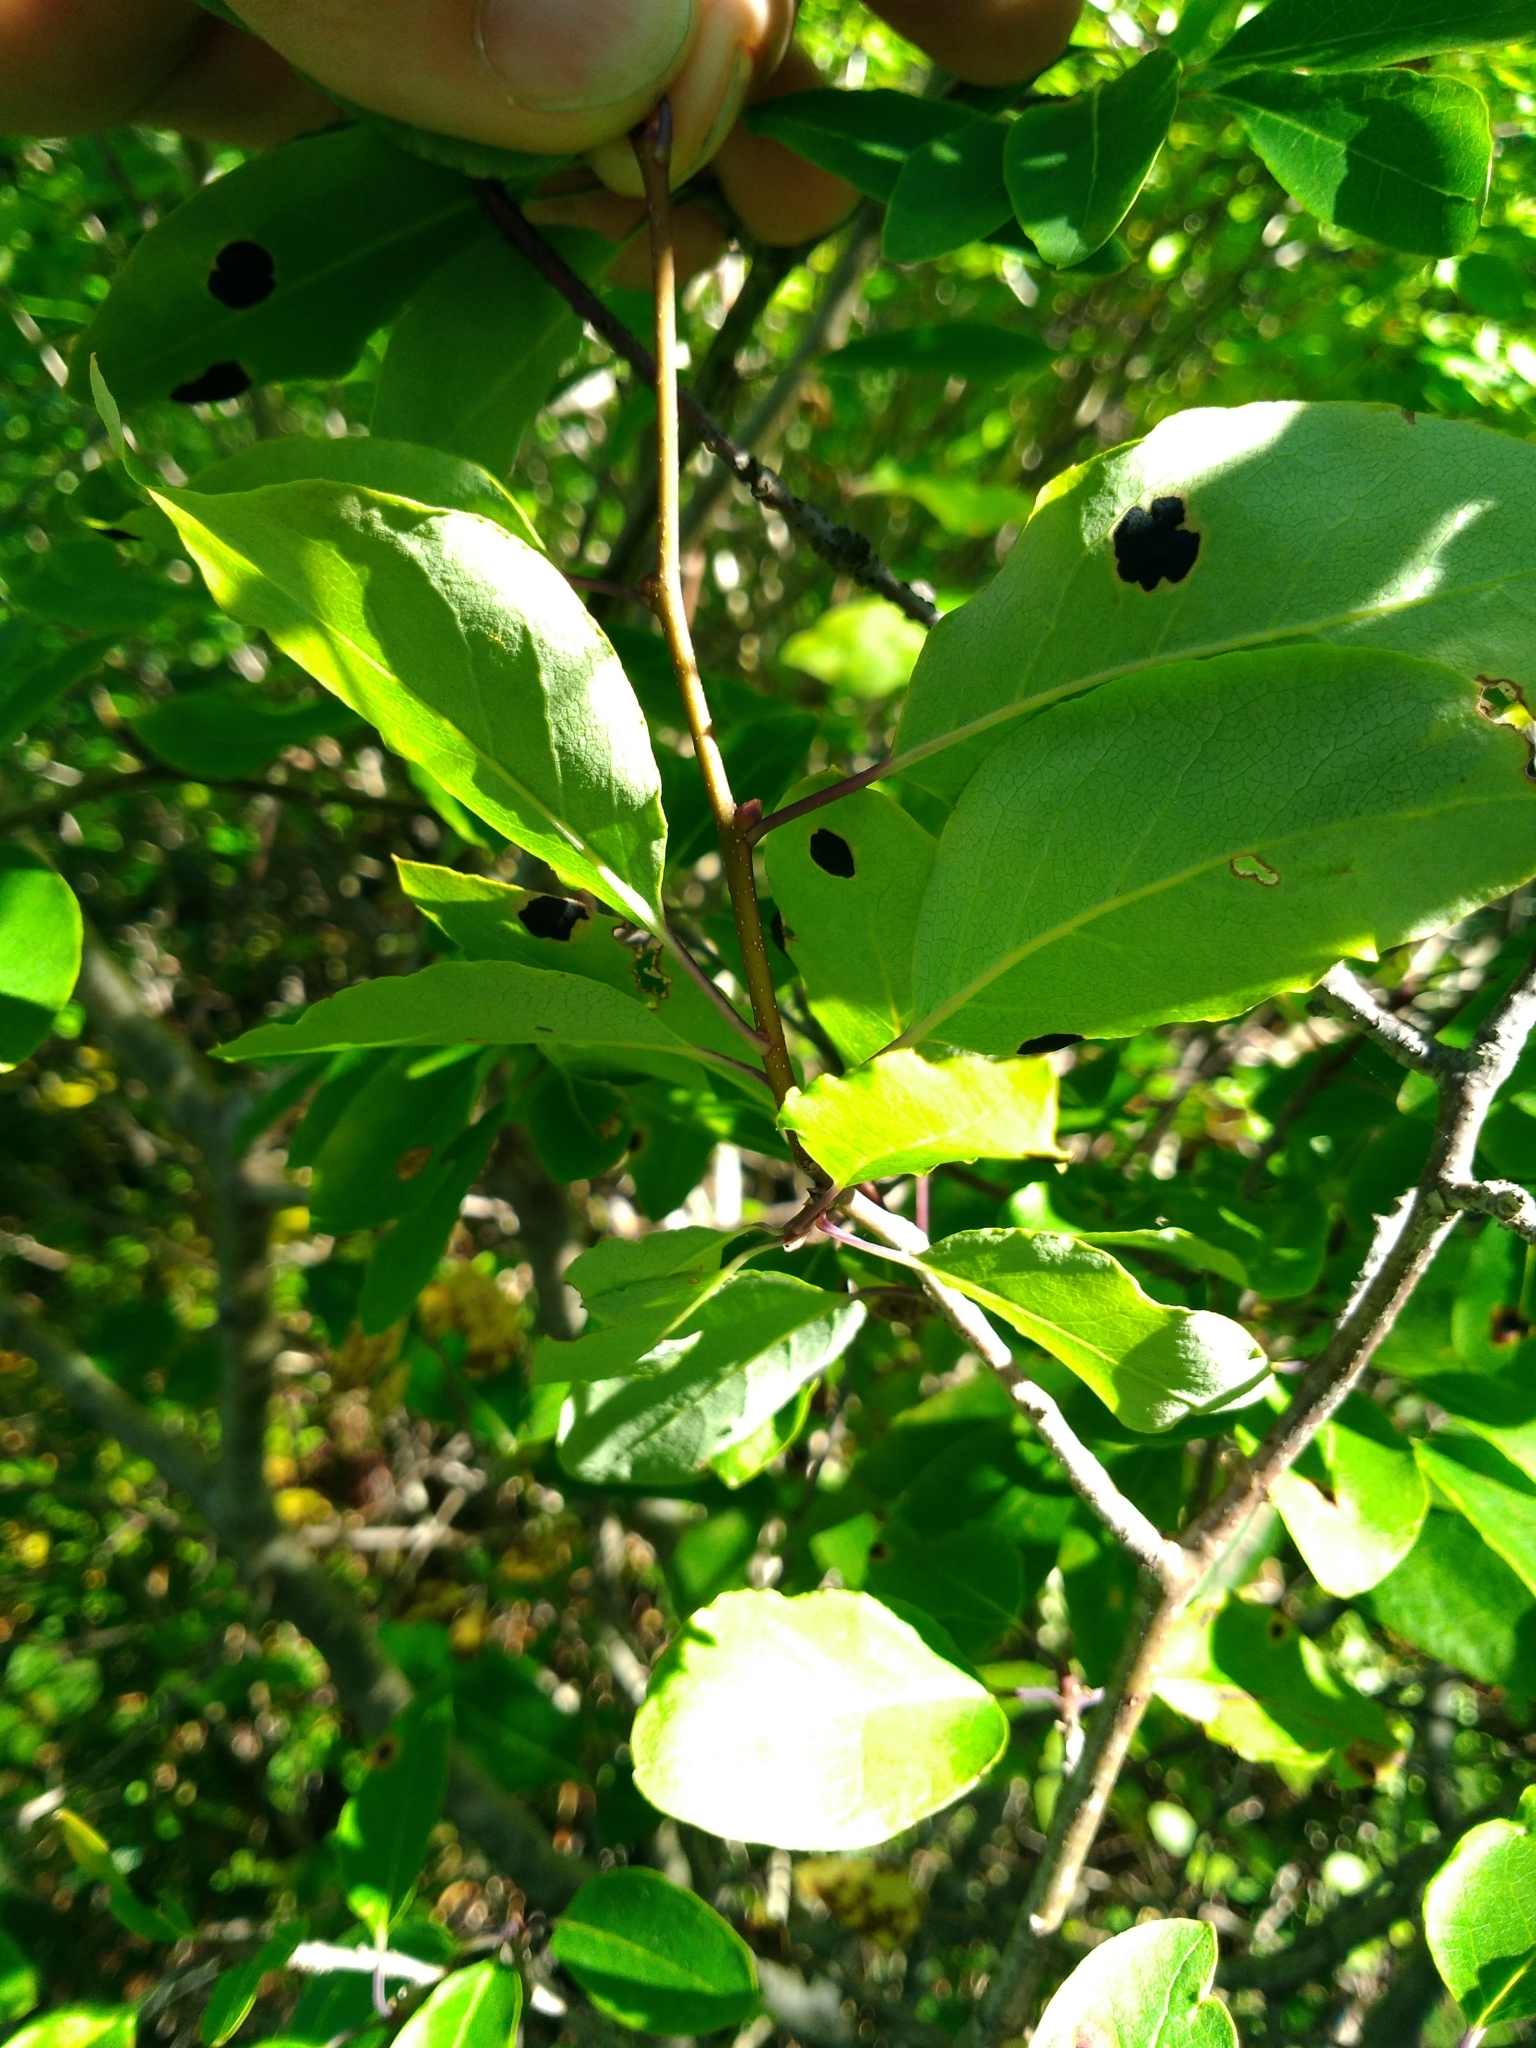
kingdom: Plantae
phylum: Tracheophyta
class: Magnoliopsida
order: Aquifoliales
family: Aquifoliaceae
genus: Ilex
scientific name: Ilex mucronata
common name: Catberry
